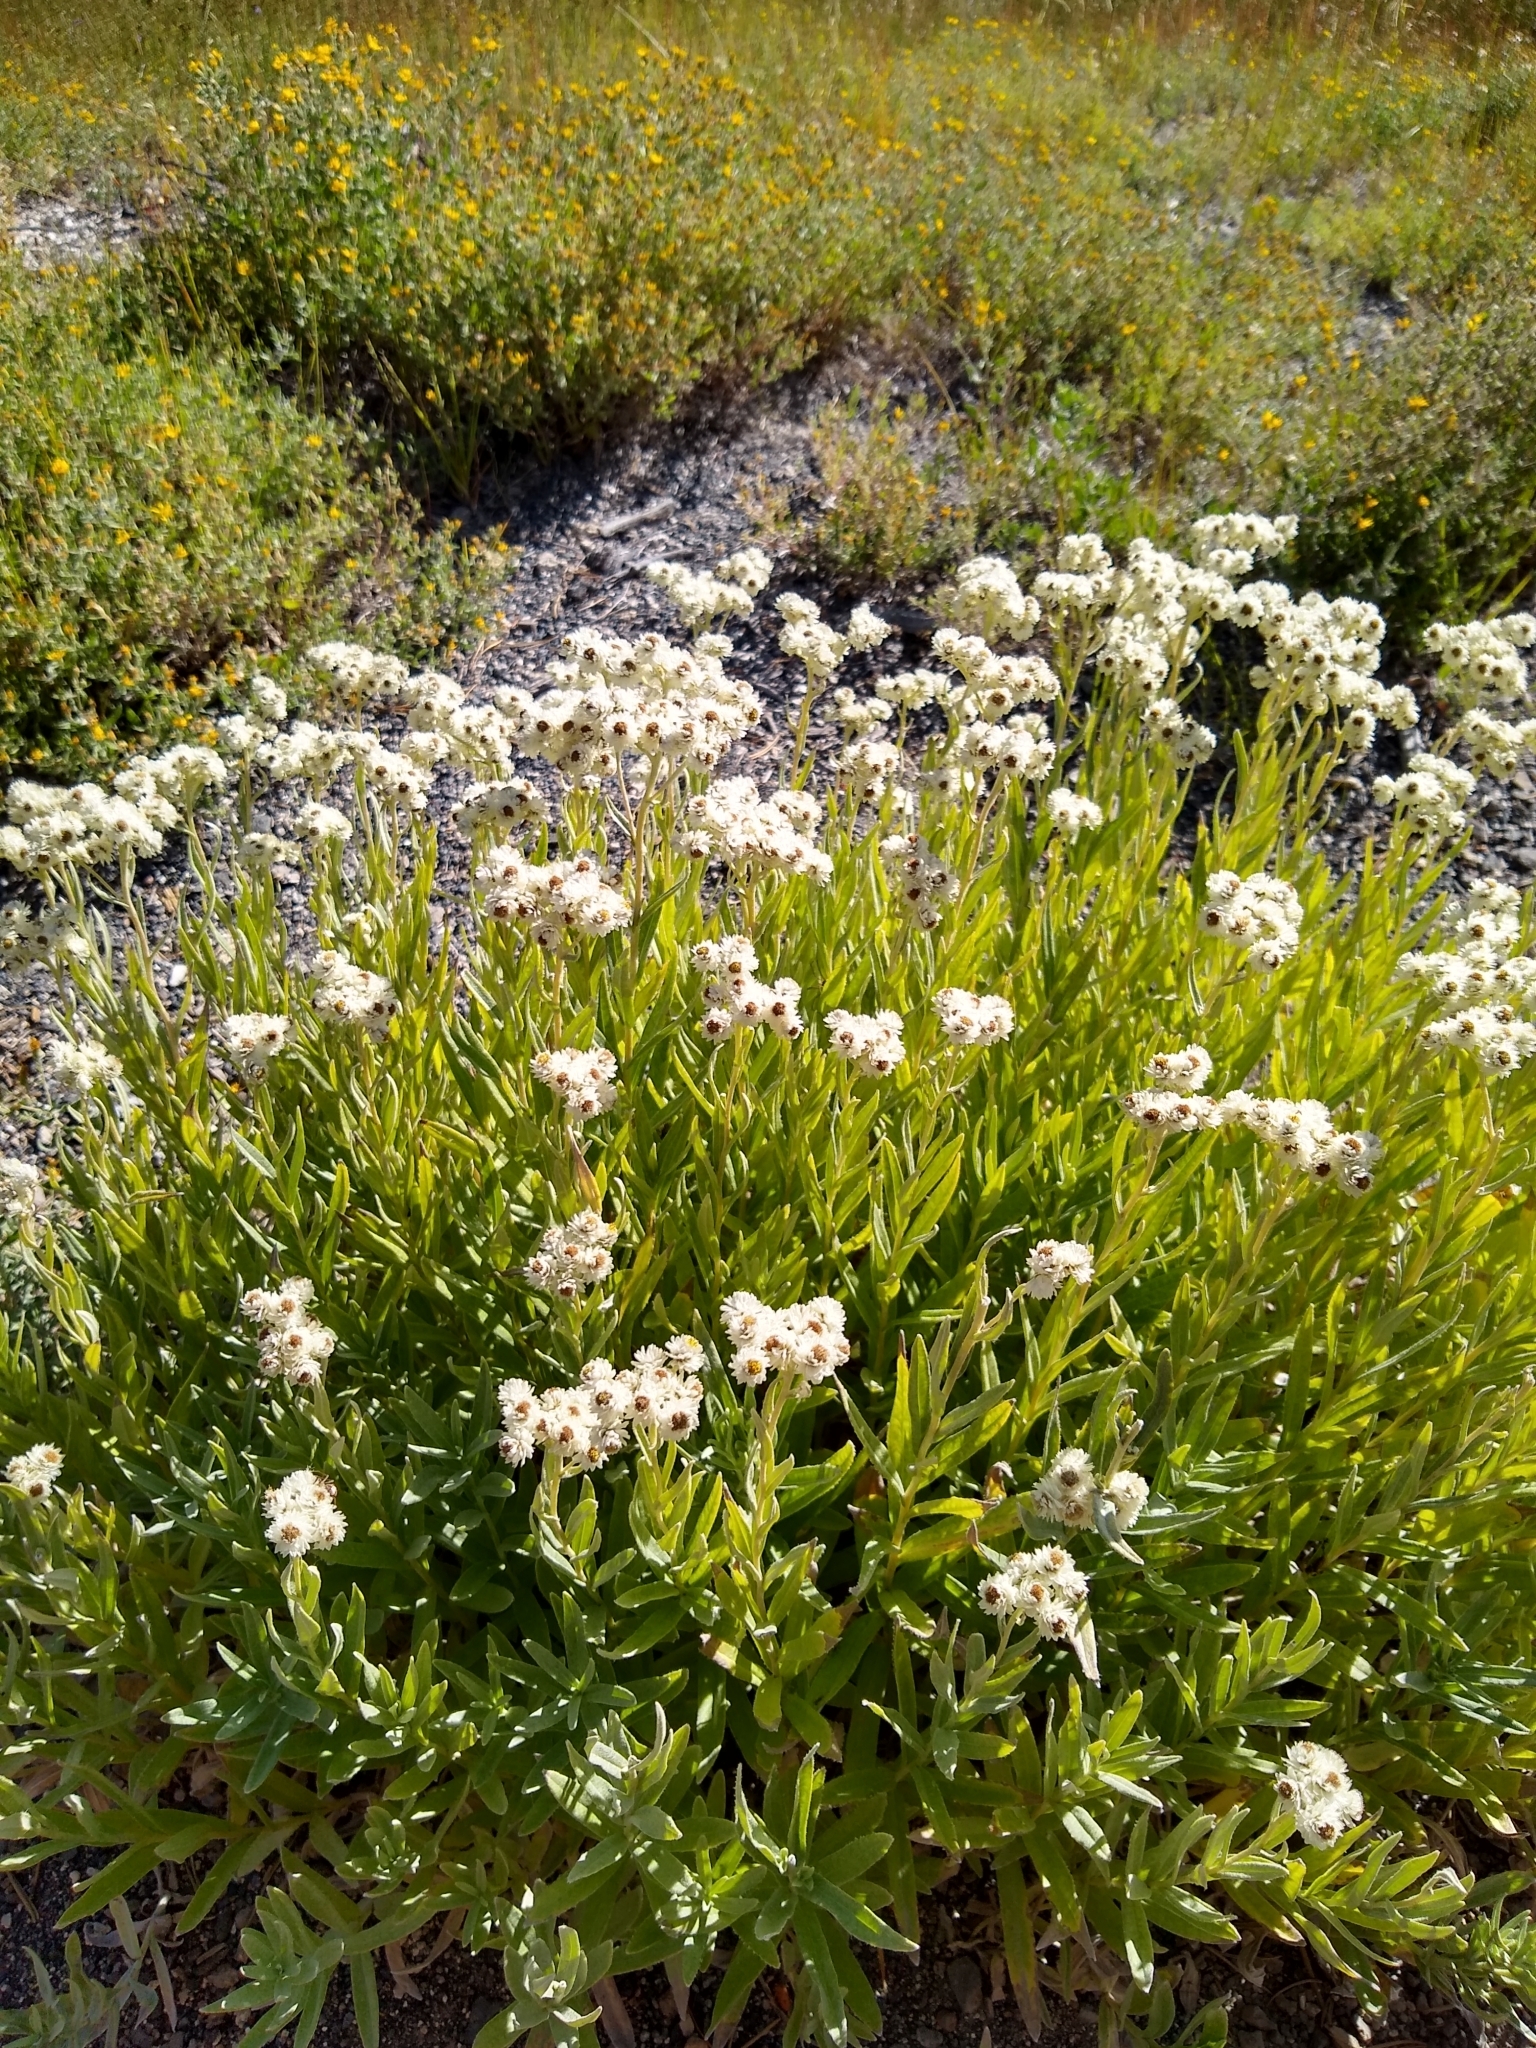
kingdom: Plantae
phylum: Tracheophyta
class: Magnoliopsida
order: Asterales
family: Asteraceae
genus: Anaphalis
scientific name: Anaphalis margaritacea
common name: Pearly everlasting
